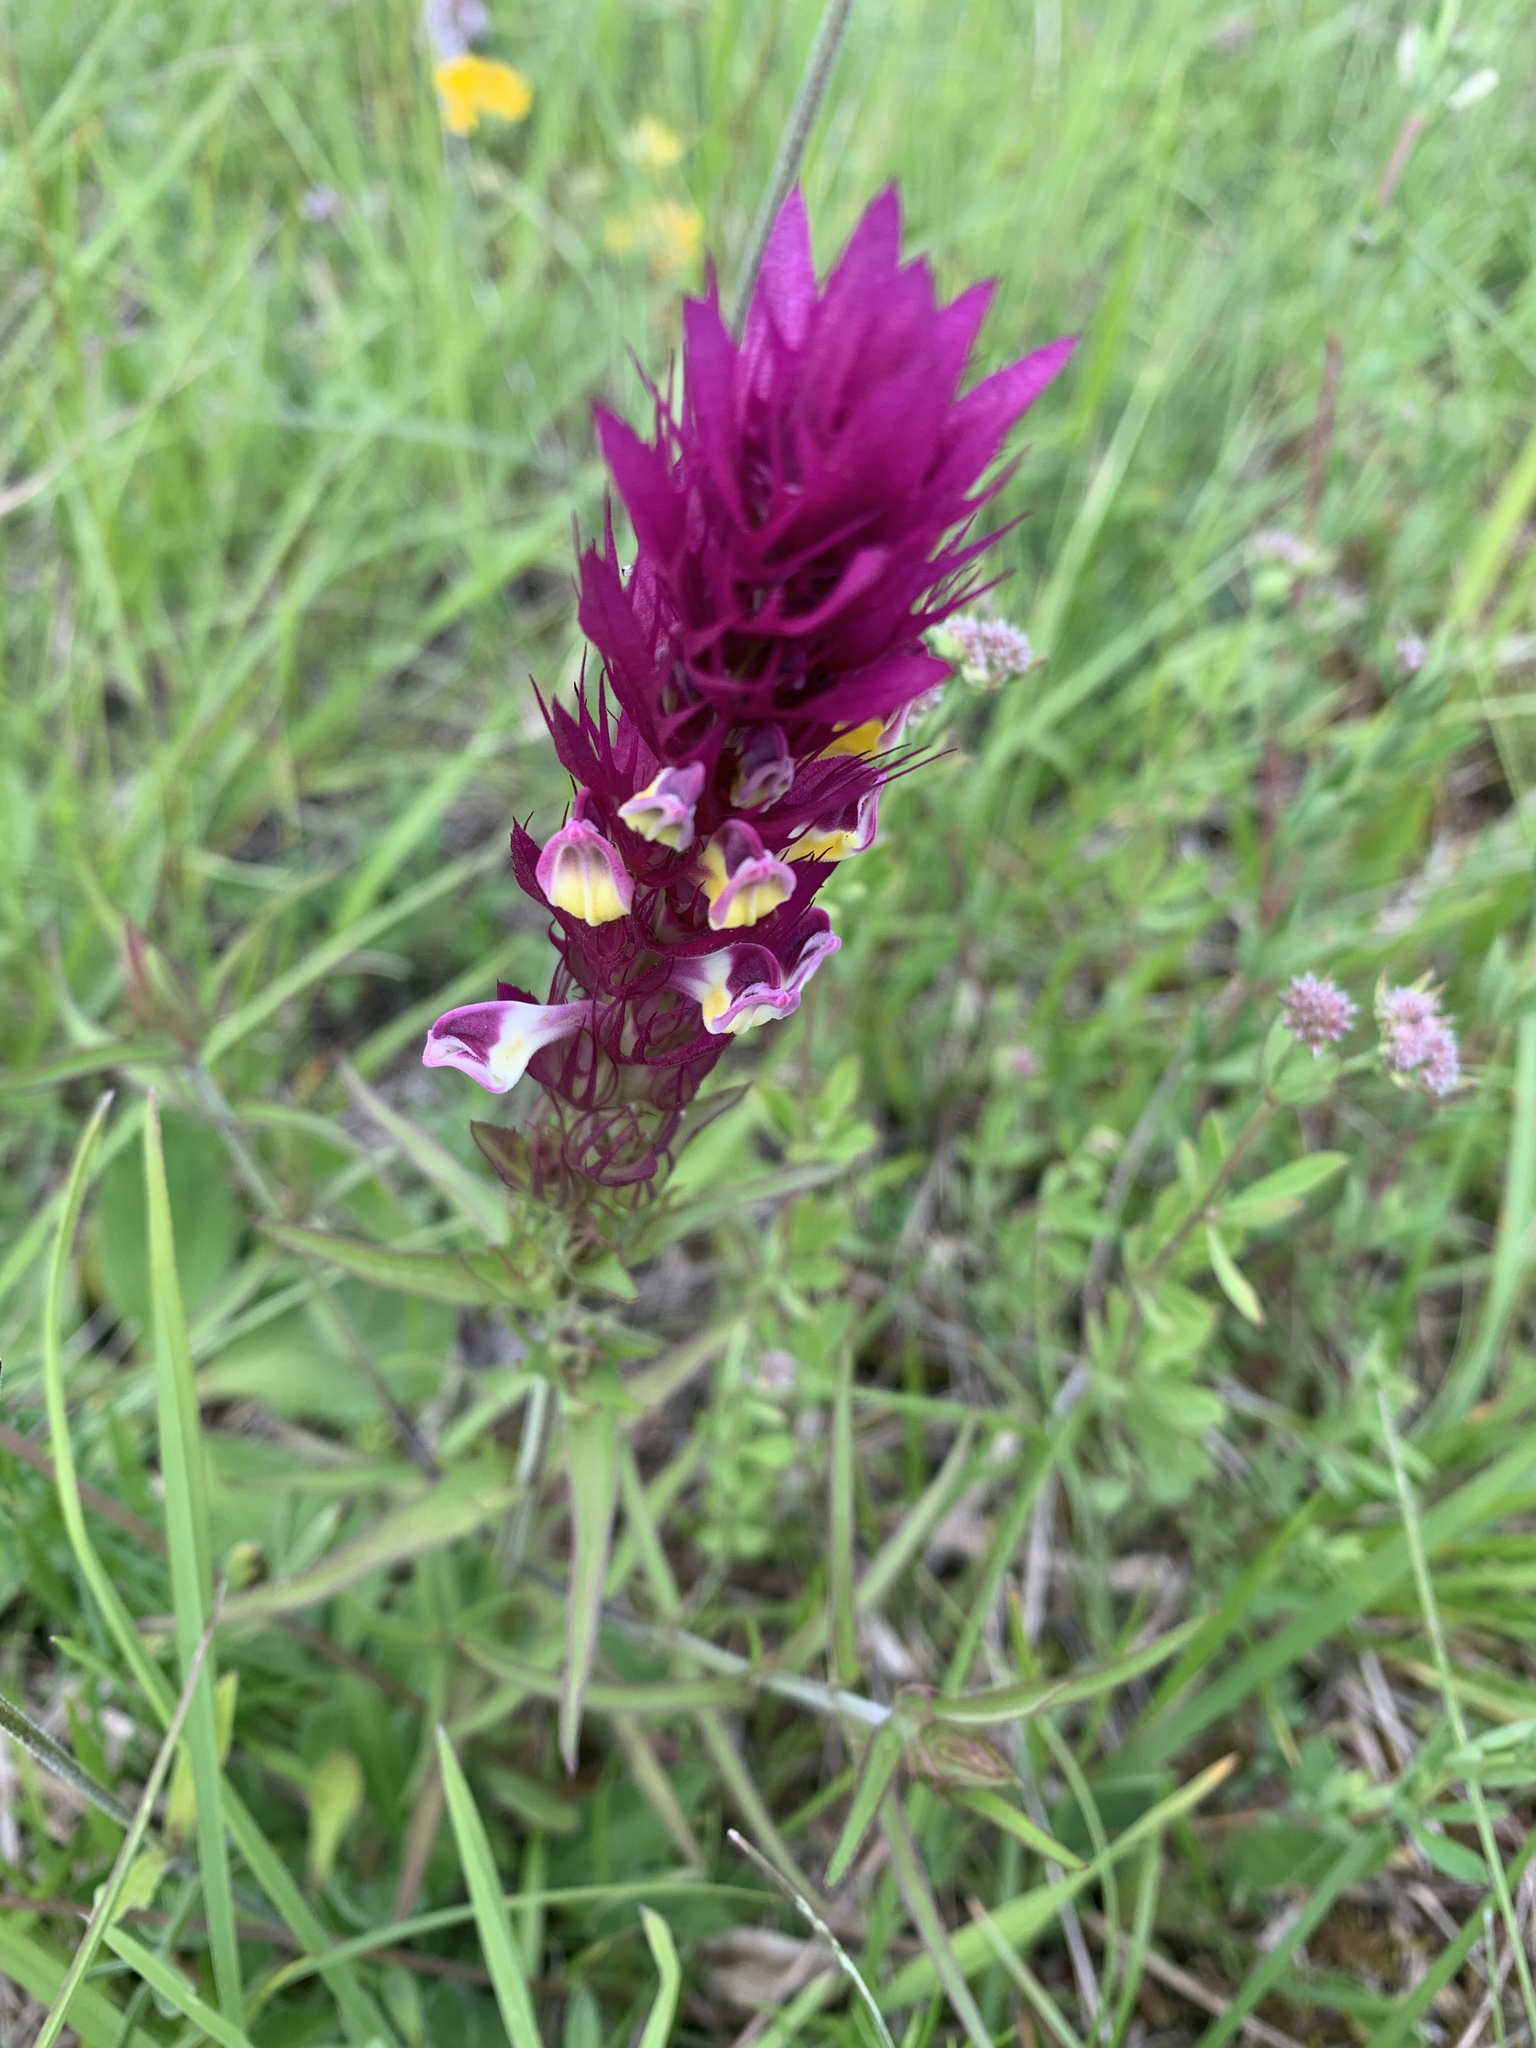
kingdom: Plantae
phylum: Tracheophyta
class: Magnoliopsida
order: Lamiales
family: Orobanchaceae
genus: Melampyrum
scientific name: Melampyrum arvense
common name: Field cow-wheat
